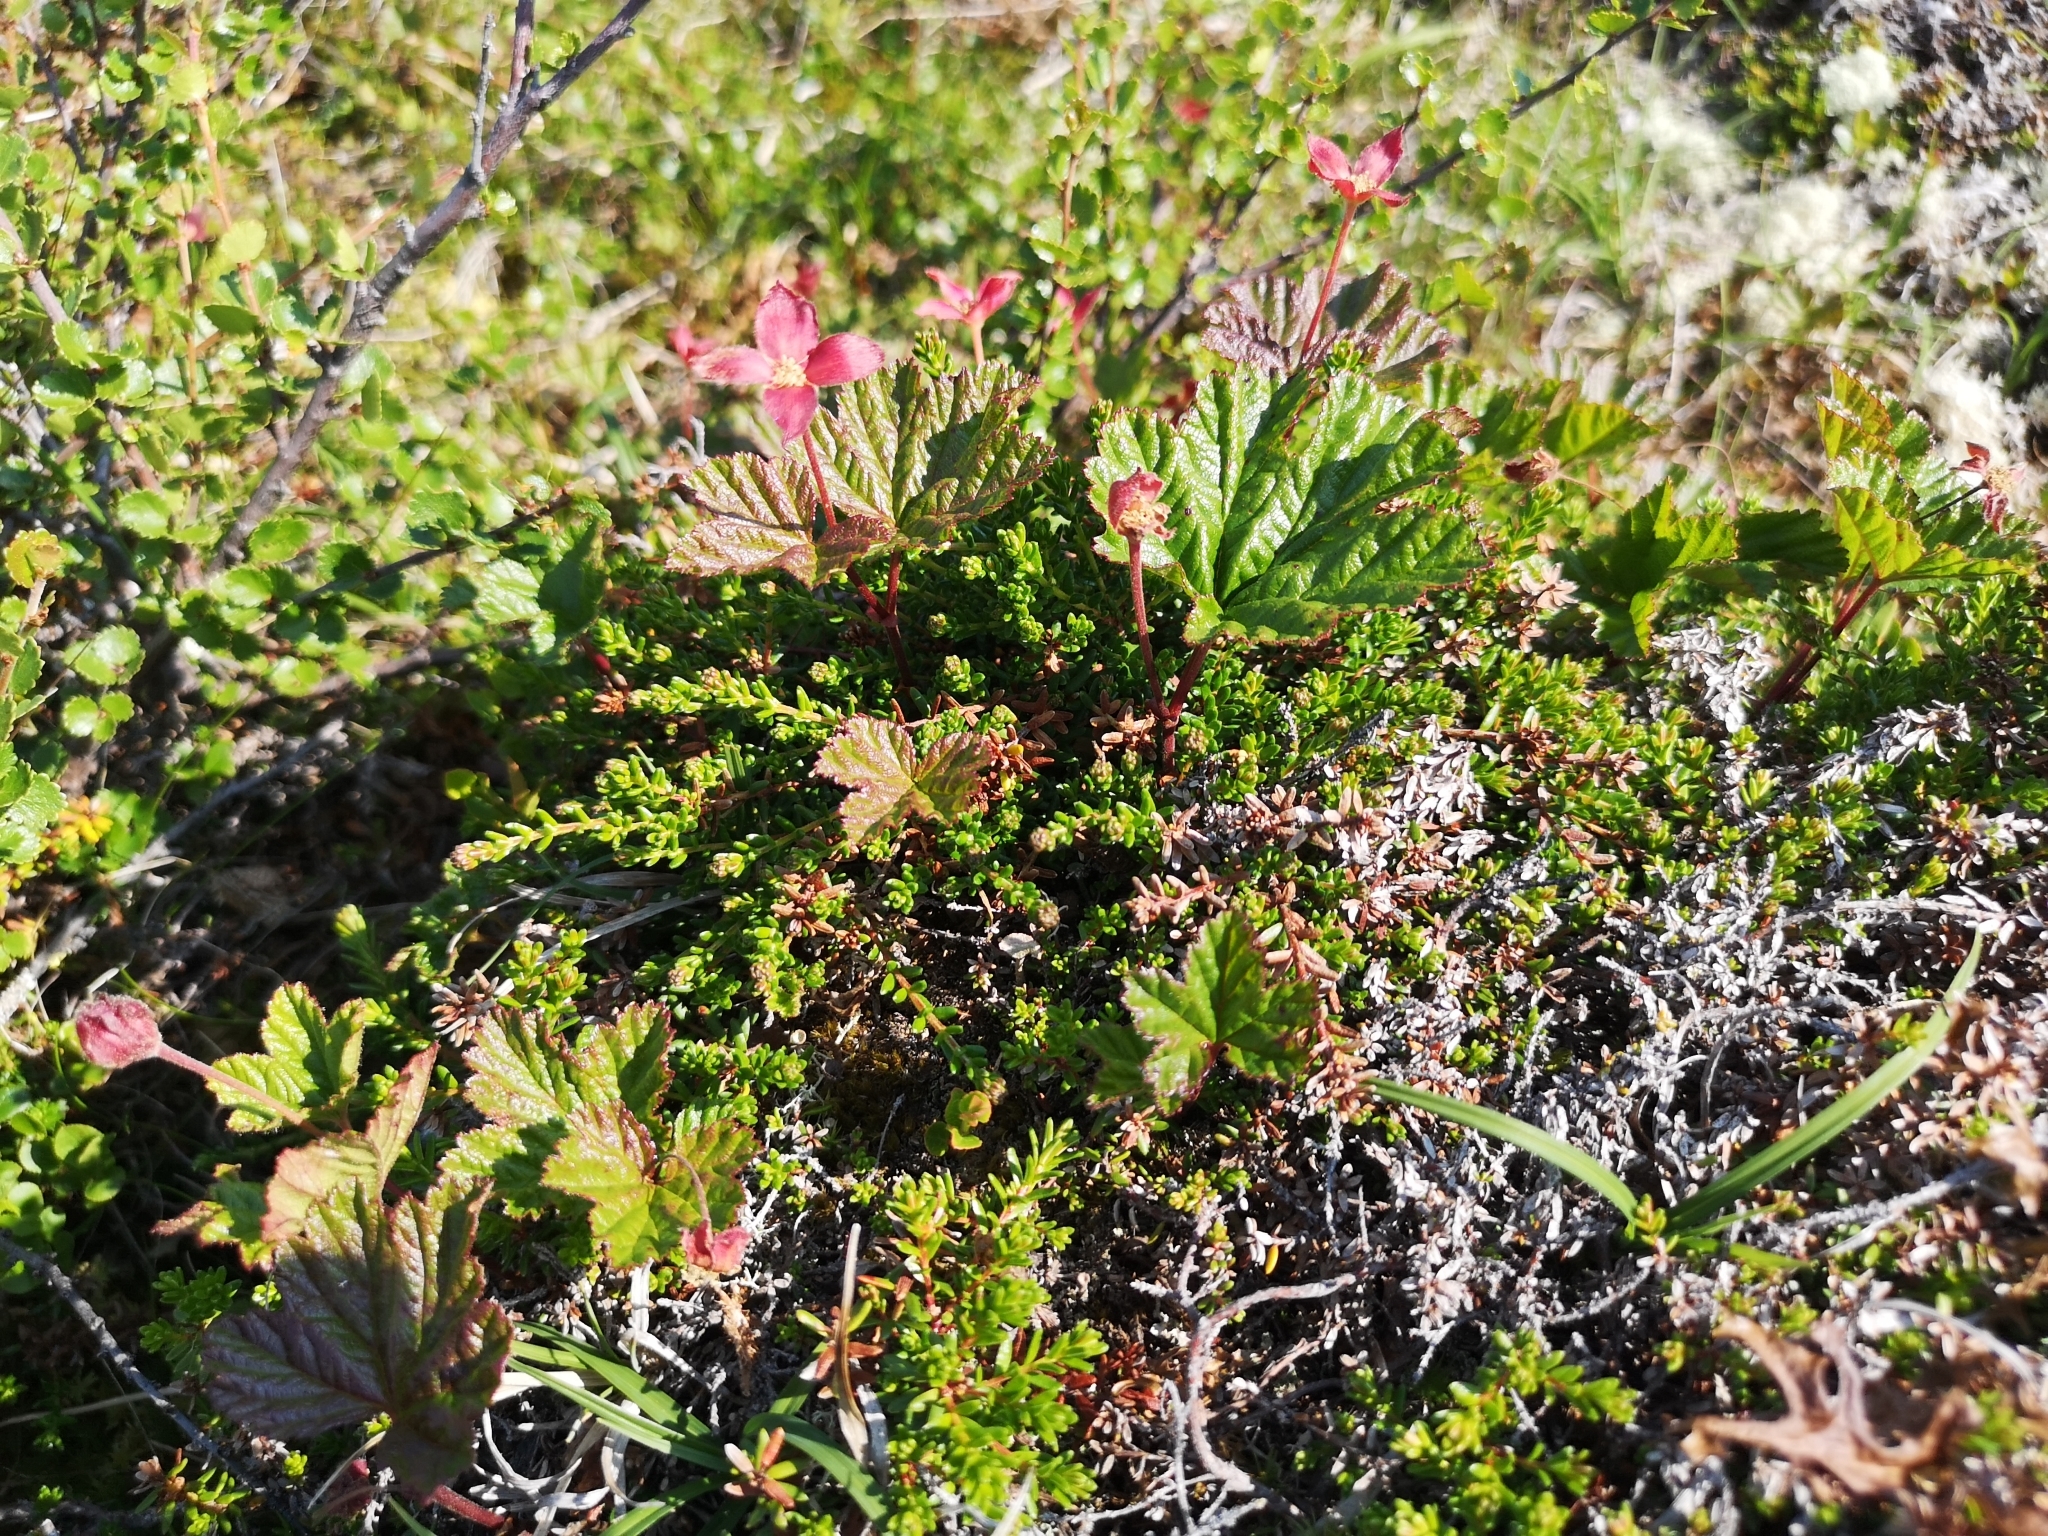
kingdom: Plantae
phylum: Tracheophyta
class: Magnoliopsida
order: Rosales
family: Rosaceae
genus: Rubus
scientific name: Rubus chamaemorus
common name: Cloudberry
